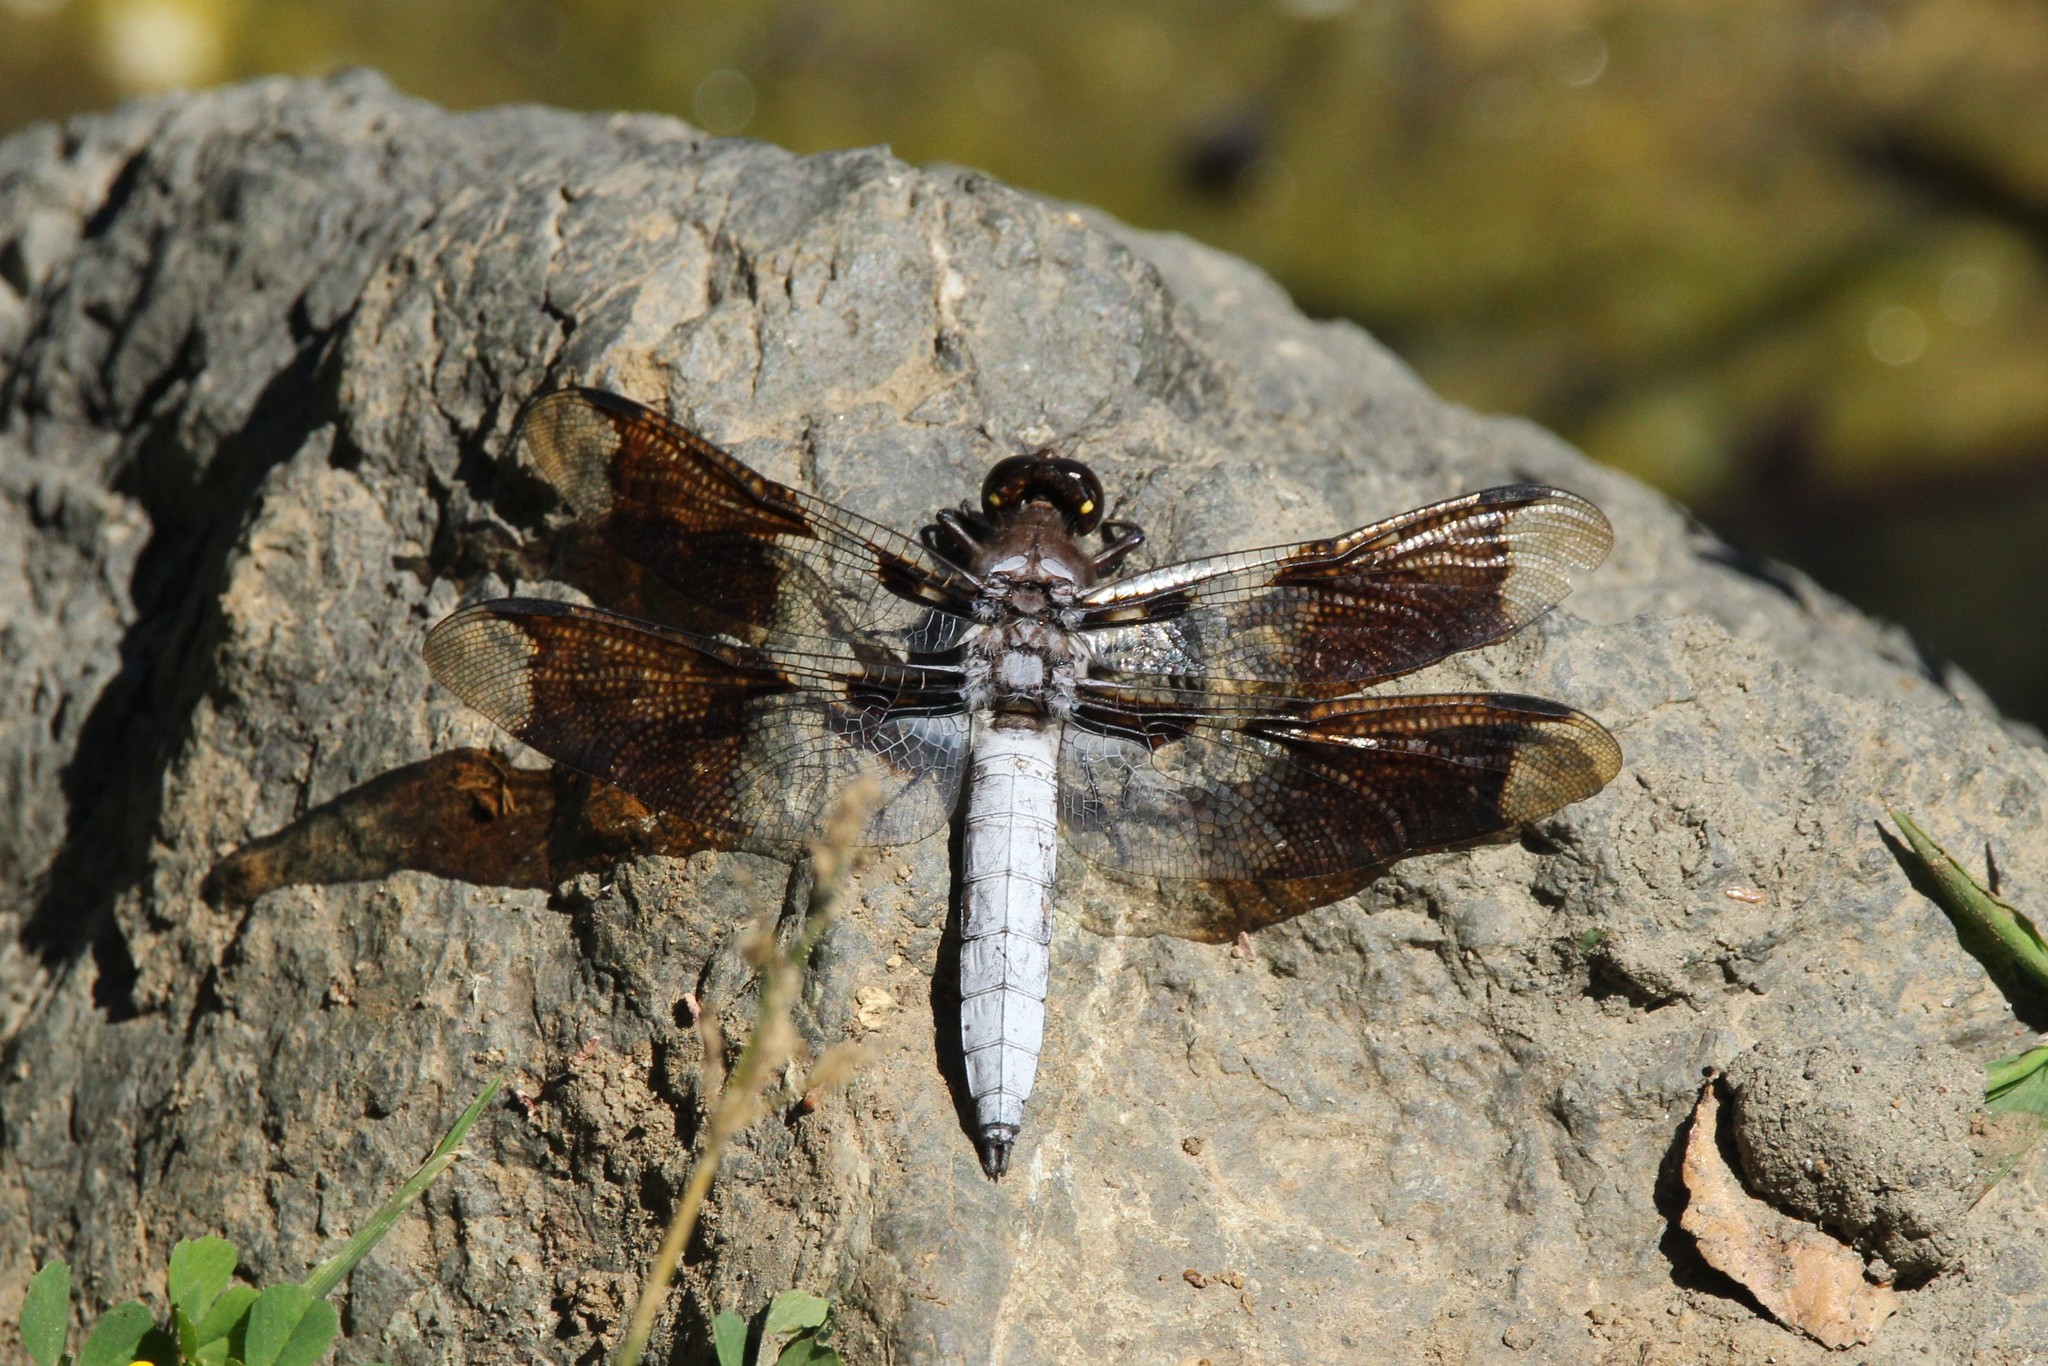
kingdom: Animalia
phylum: Arthropoda
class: Insecta
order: Odonata
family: Libellulidae
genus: Plathemis
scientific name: Plathemis lydia
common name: Common whitetail
